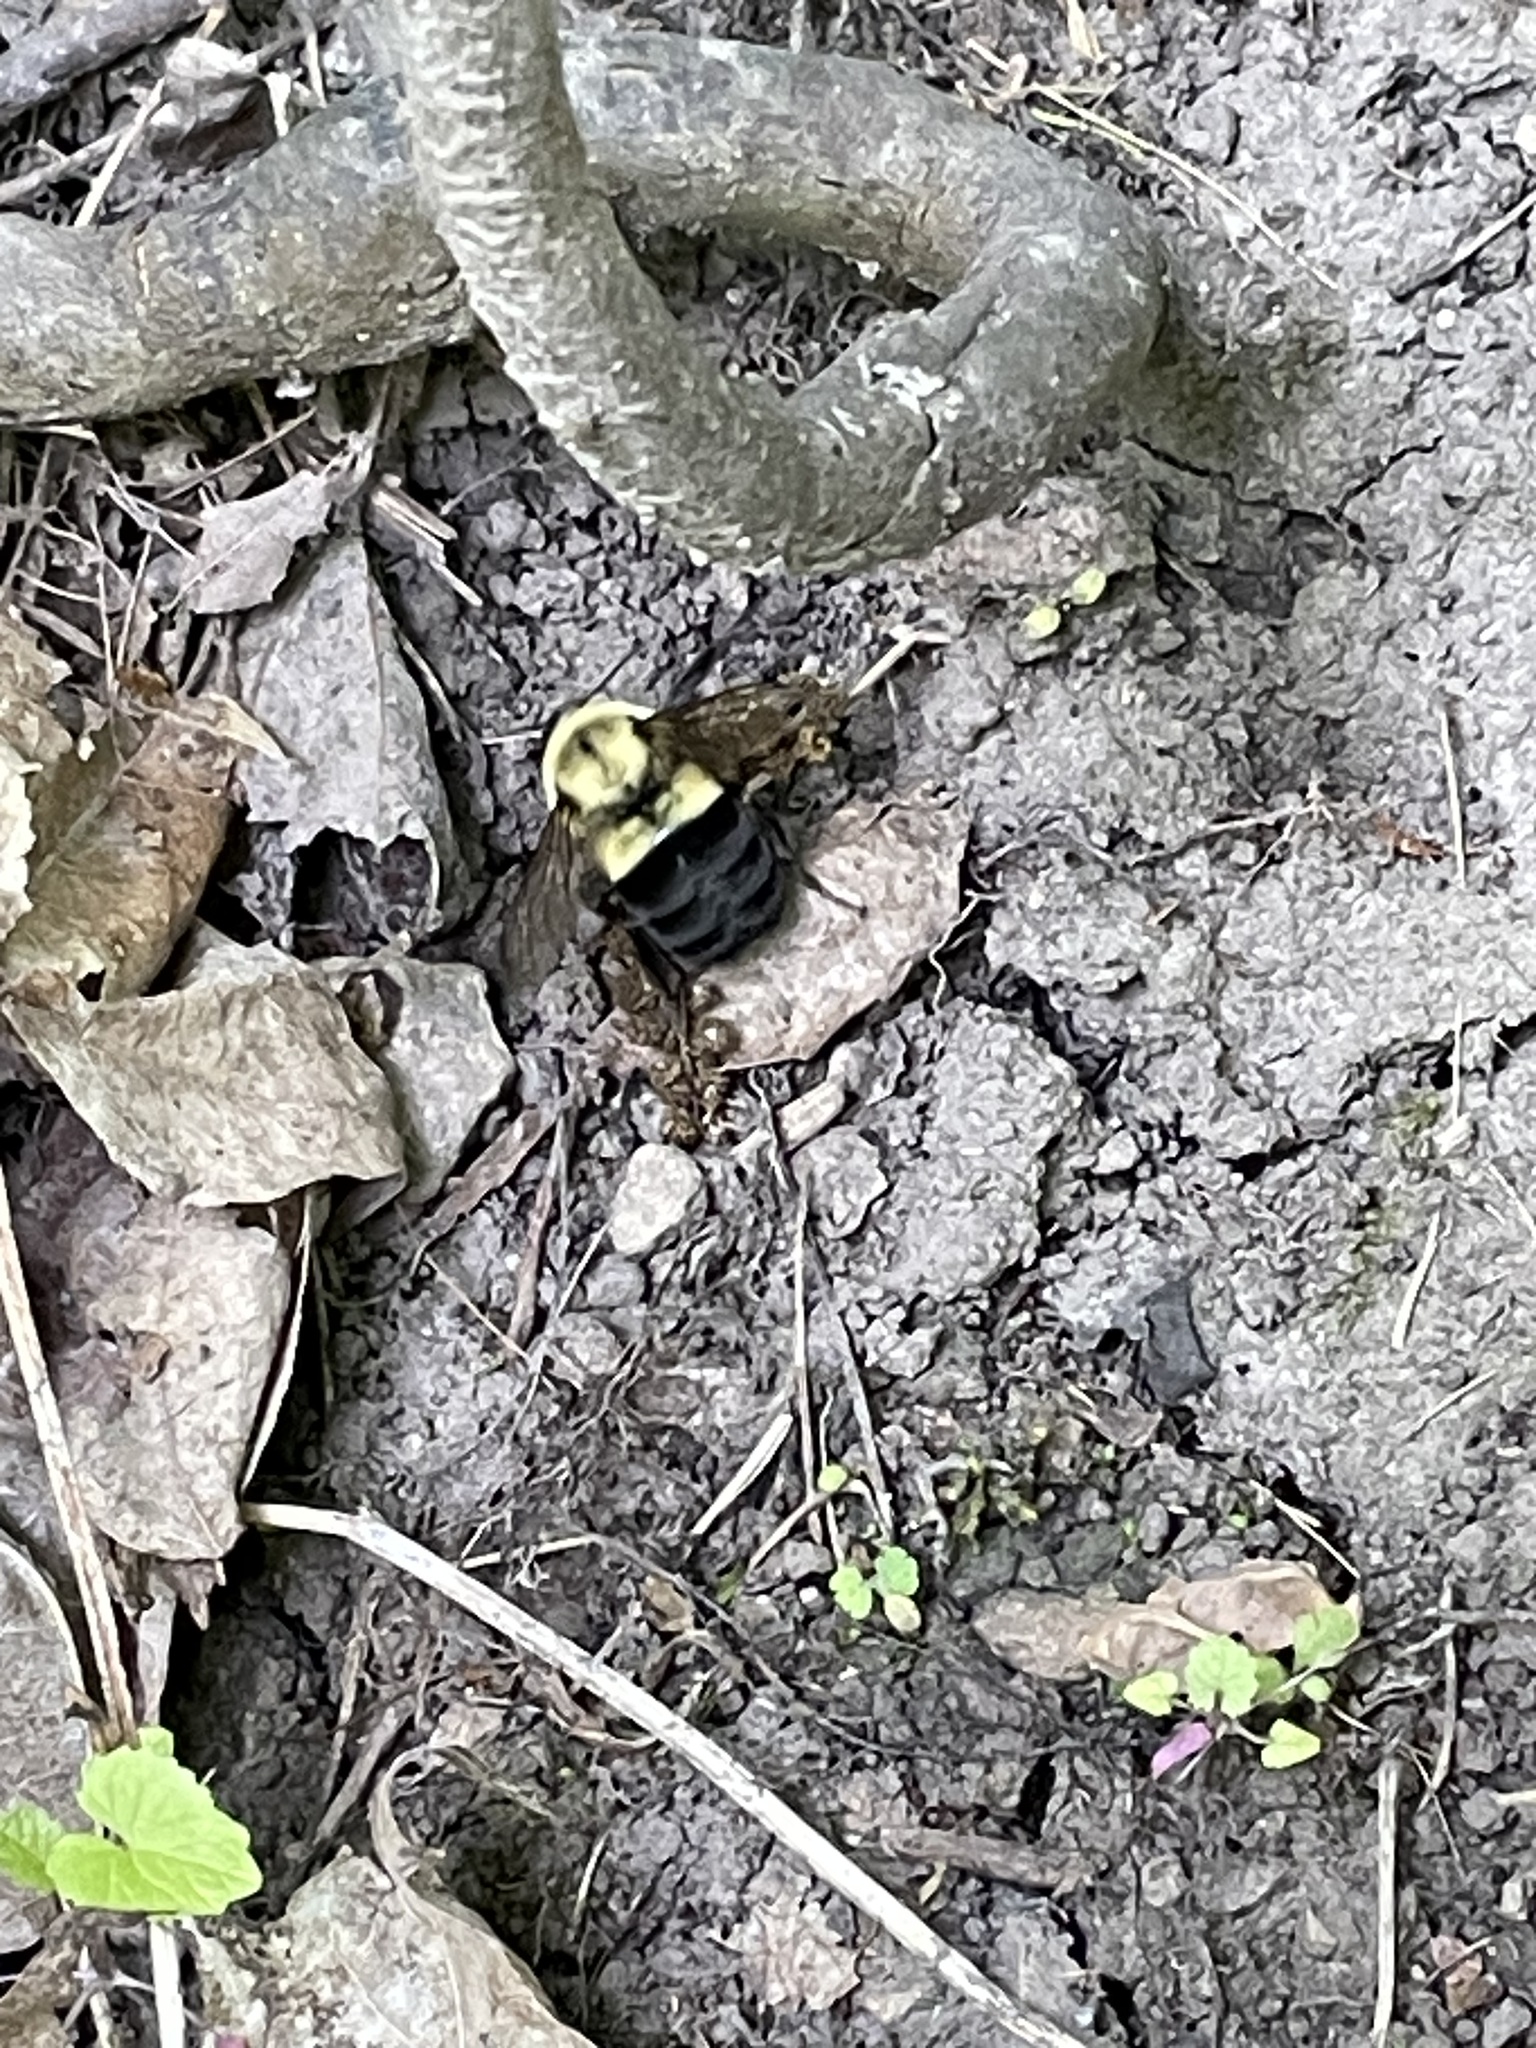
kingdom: Animalia
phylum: Arthropoda
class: Insecta
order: Hymenoptera
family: Apidae
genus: Bombus
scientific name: Bombus impatiens
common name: Common eastern bumble bee
